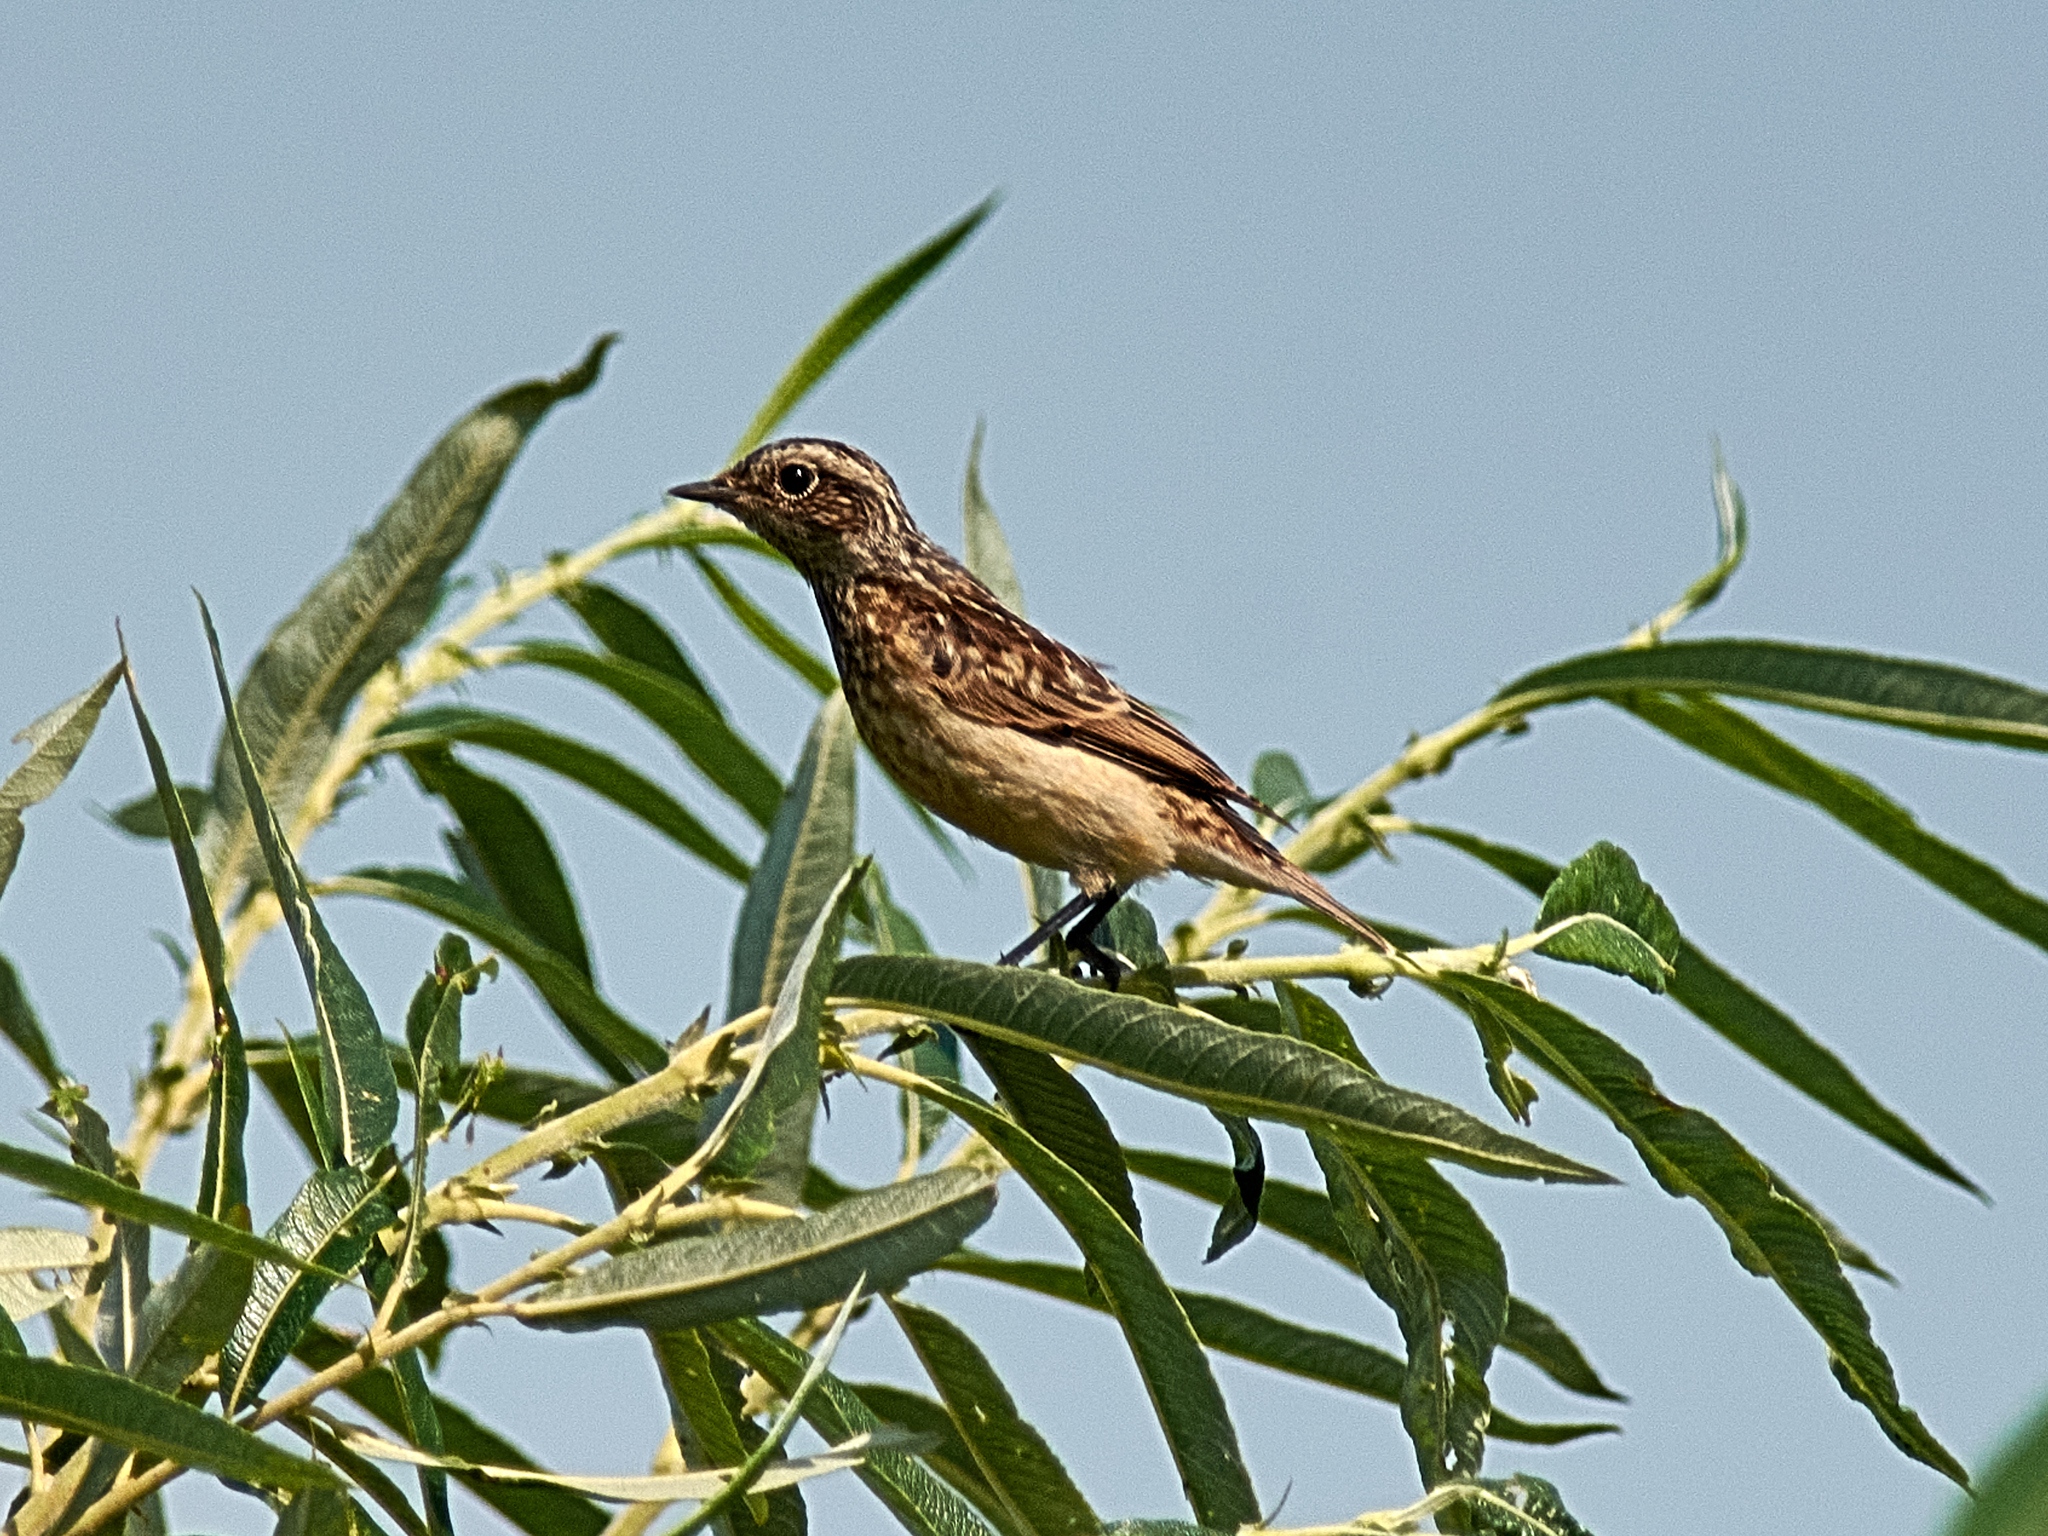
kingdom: Animalia
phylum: Chordata
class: Aves
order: Passeriformes
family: Muscicapidae
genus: Saxicola
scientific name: Saxicola rubetra
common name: Whinchat
